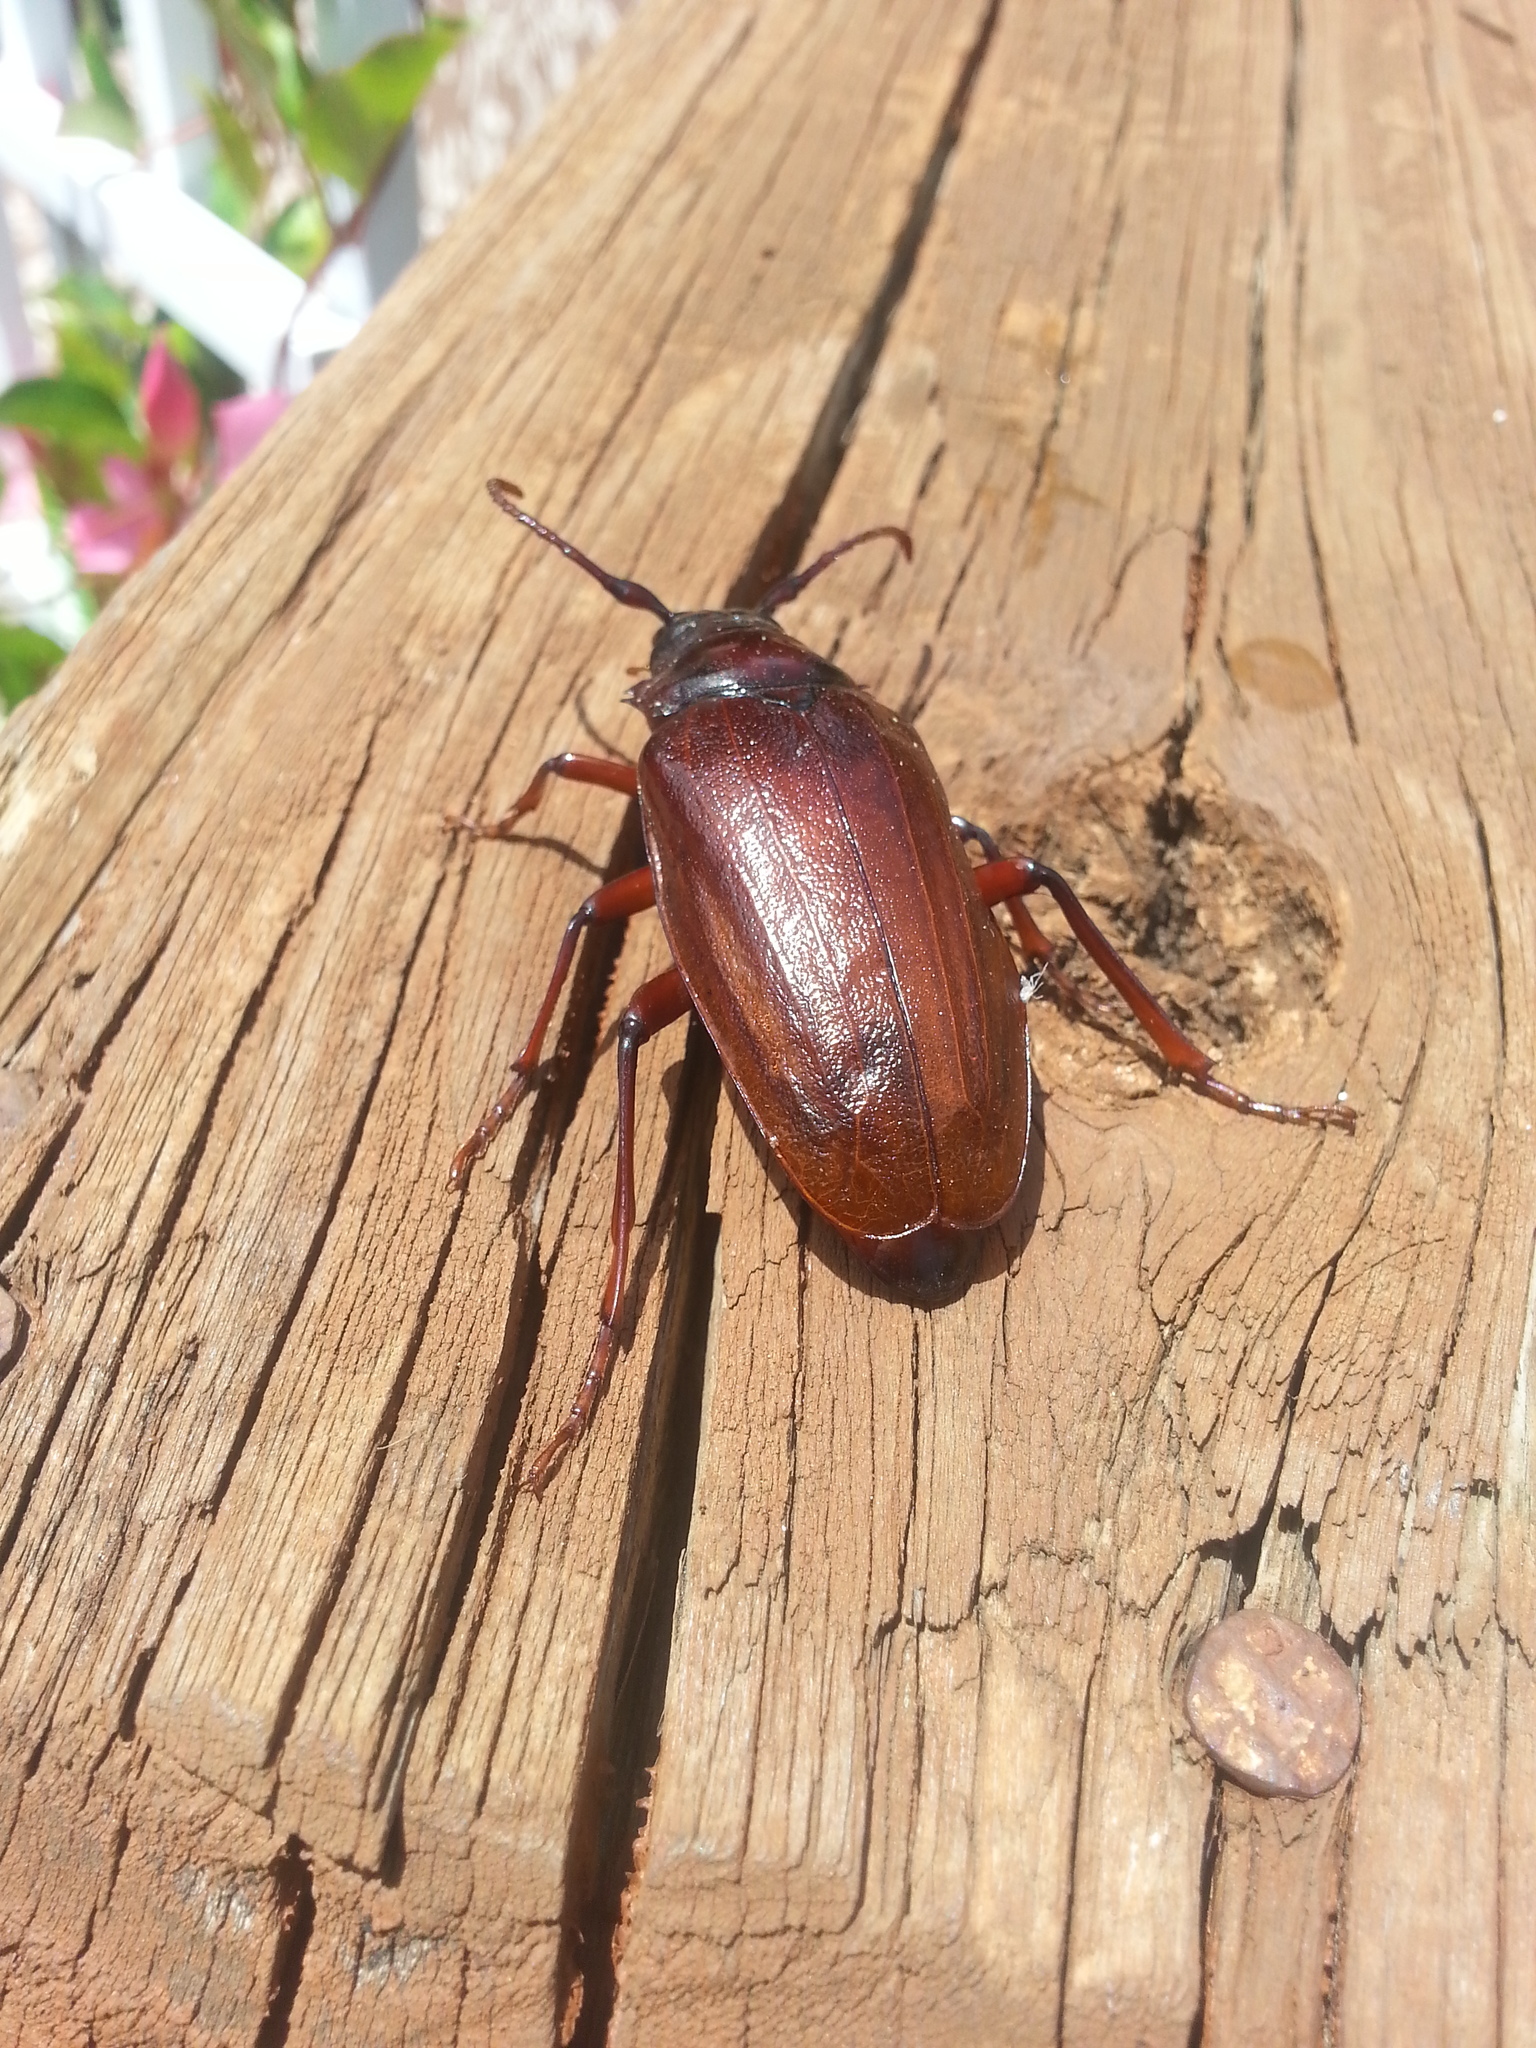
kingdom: Animalia
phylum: Arthropoda
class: Insecta
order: Coleoptera
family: Cerambycidae
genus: Prionus
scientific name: Prionus pocularis
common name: Tooth-necked longhorn beetle
